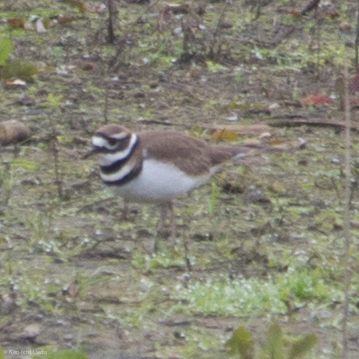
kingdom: Animalia
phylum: Chordata
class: Aves
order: Charadriiformes
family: Charadriidae
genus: Charadrius
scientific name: Charadrius vociferus
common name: Killdeer
